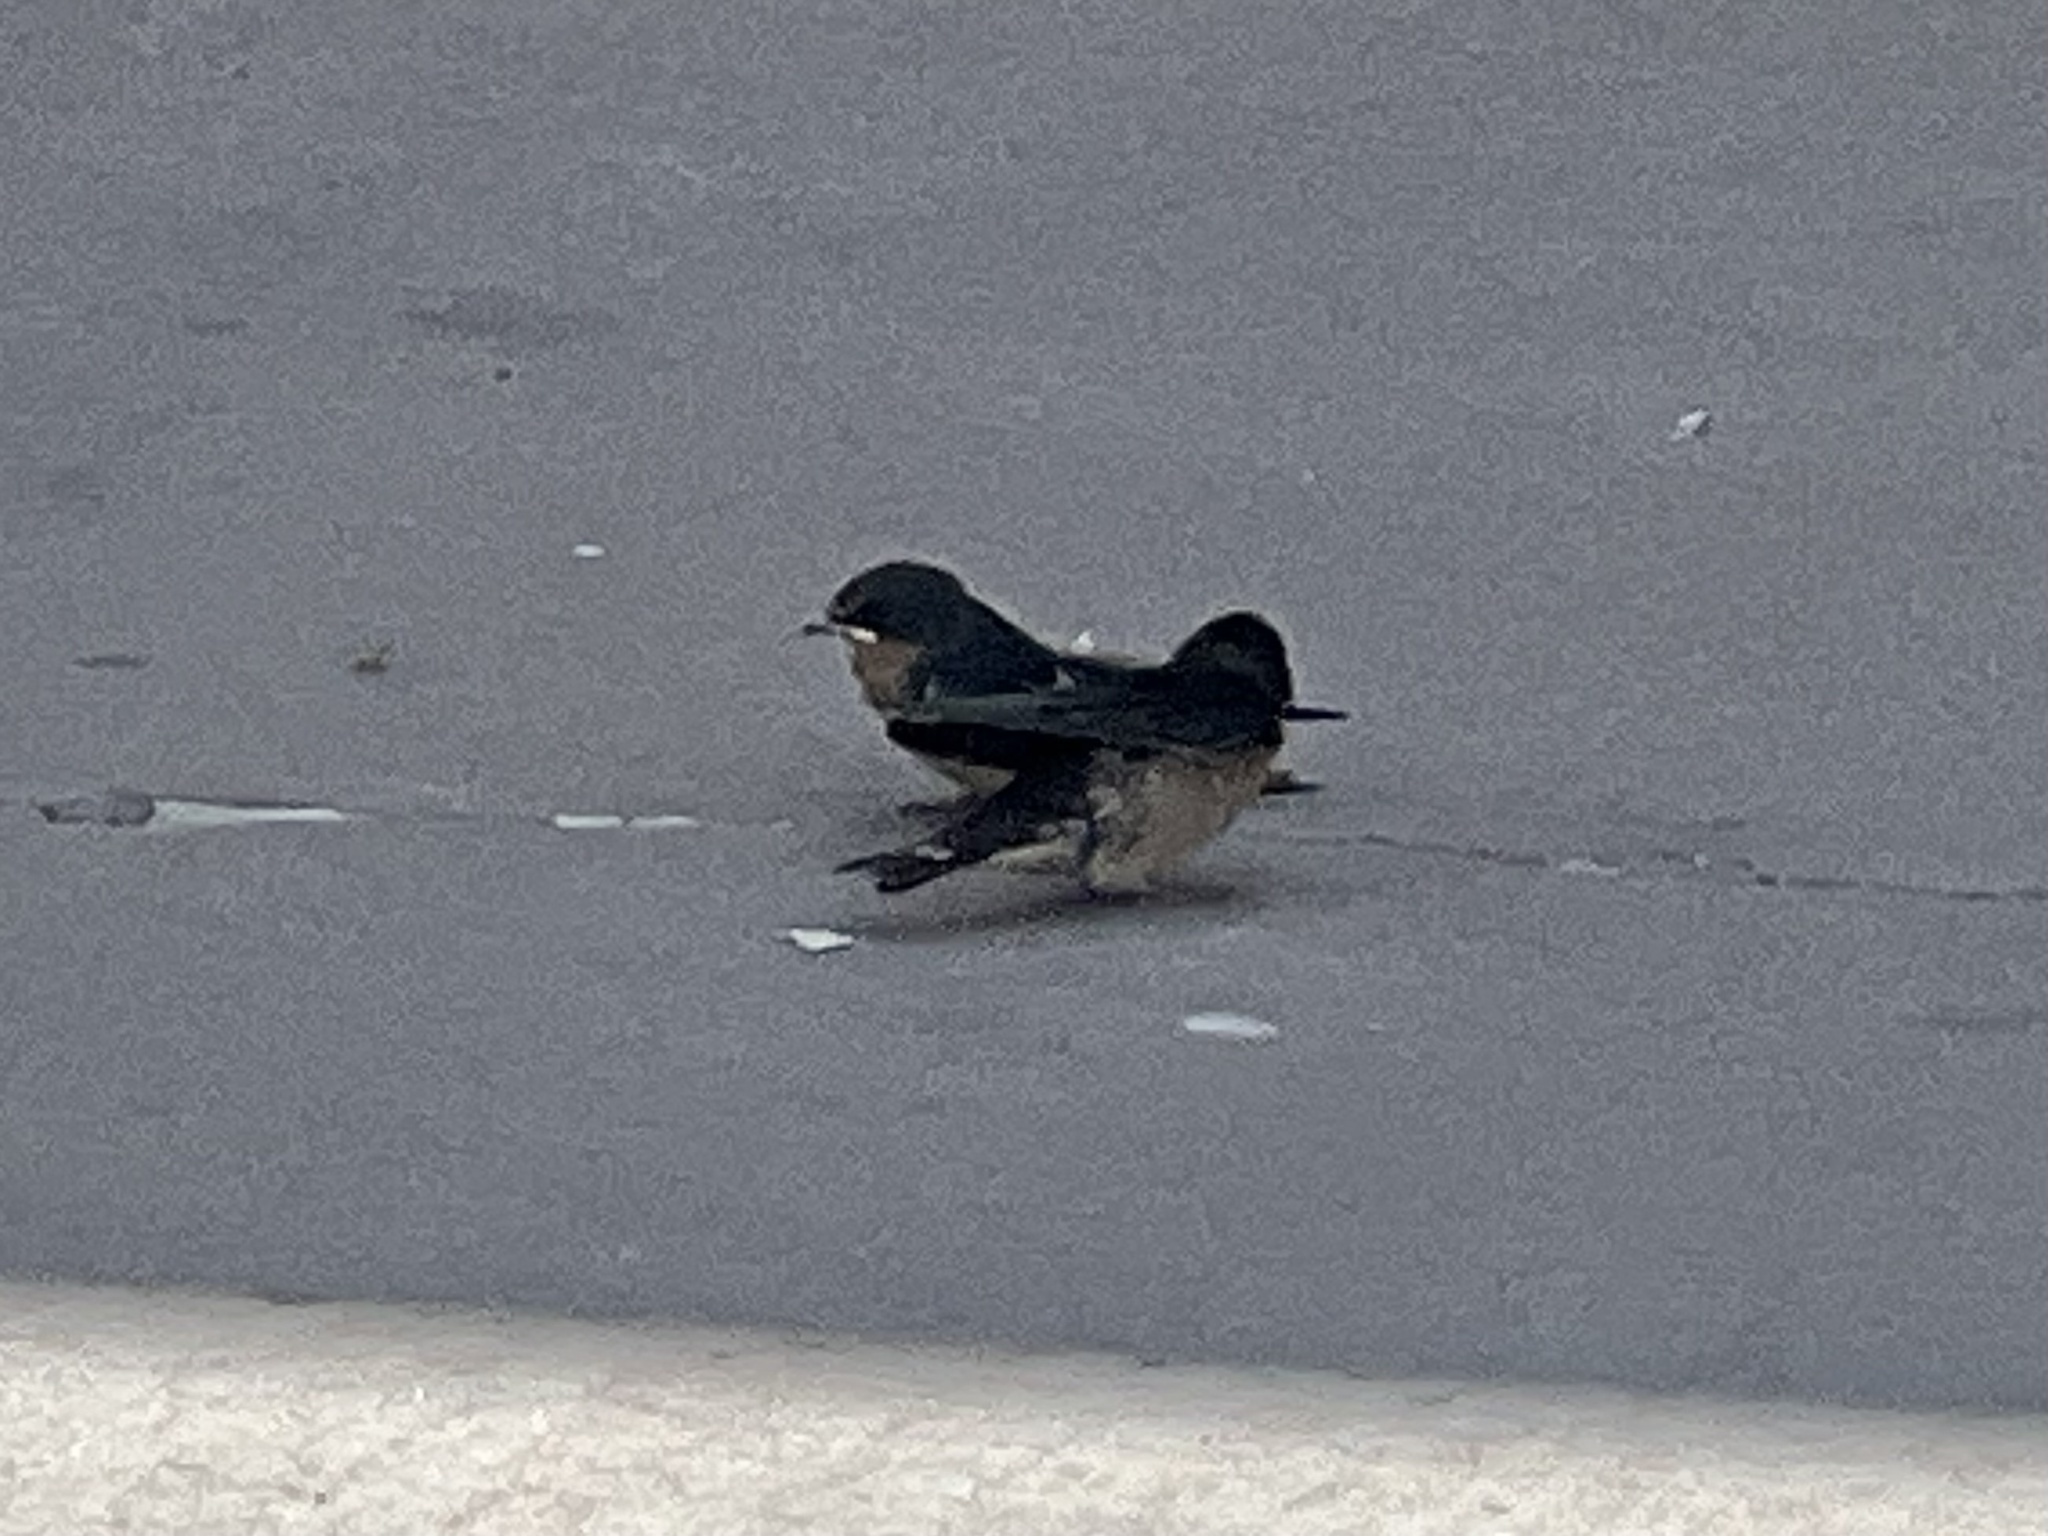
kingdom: Animalia
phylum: Chordata
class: Aves
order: Passeriformes
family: Hirundinidae
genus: Hirundo
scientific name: Hirundo rustica
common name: Barn swallow
